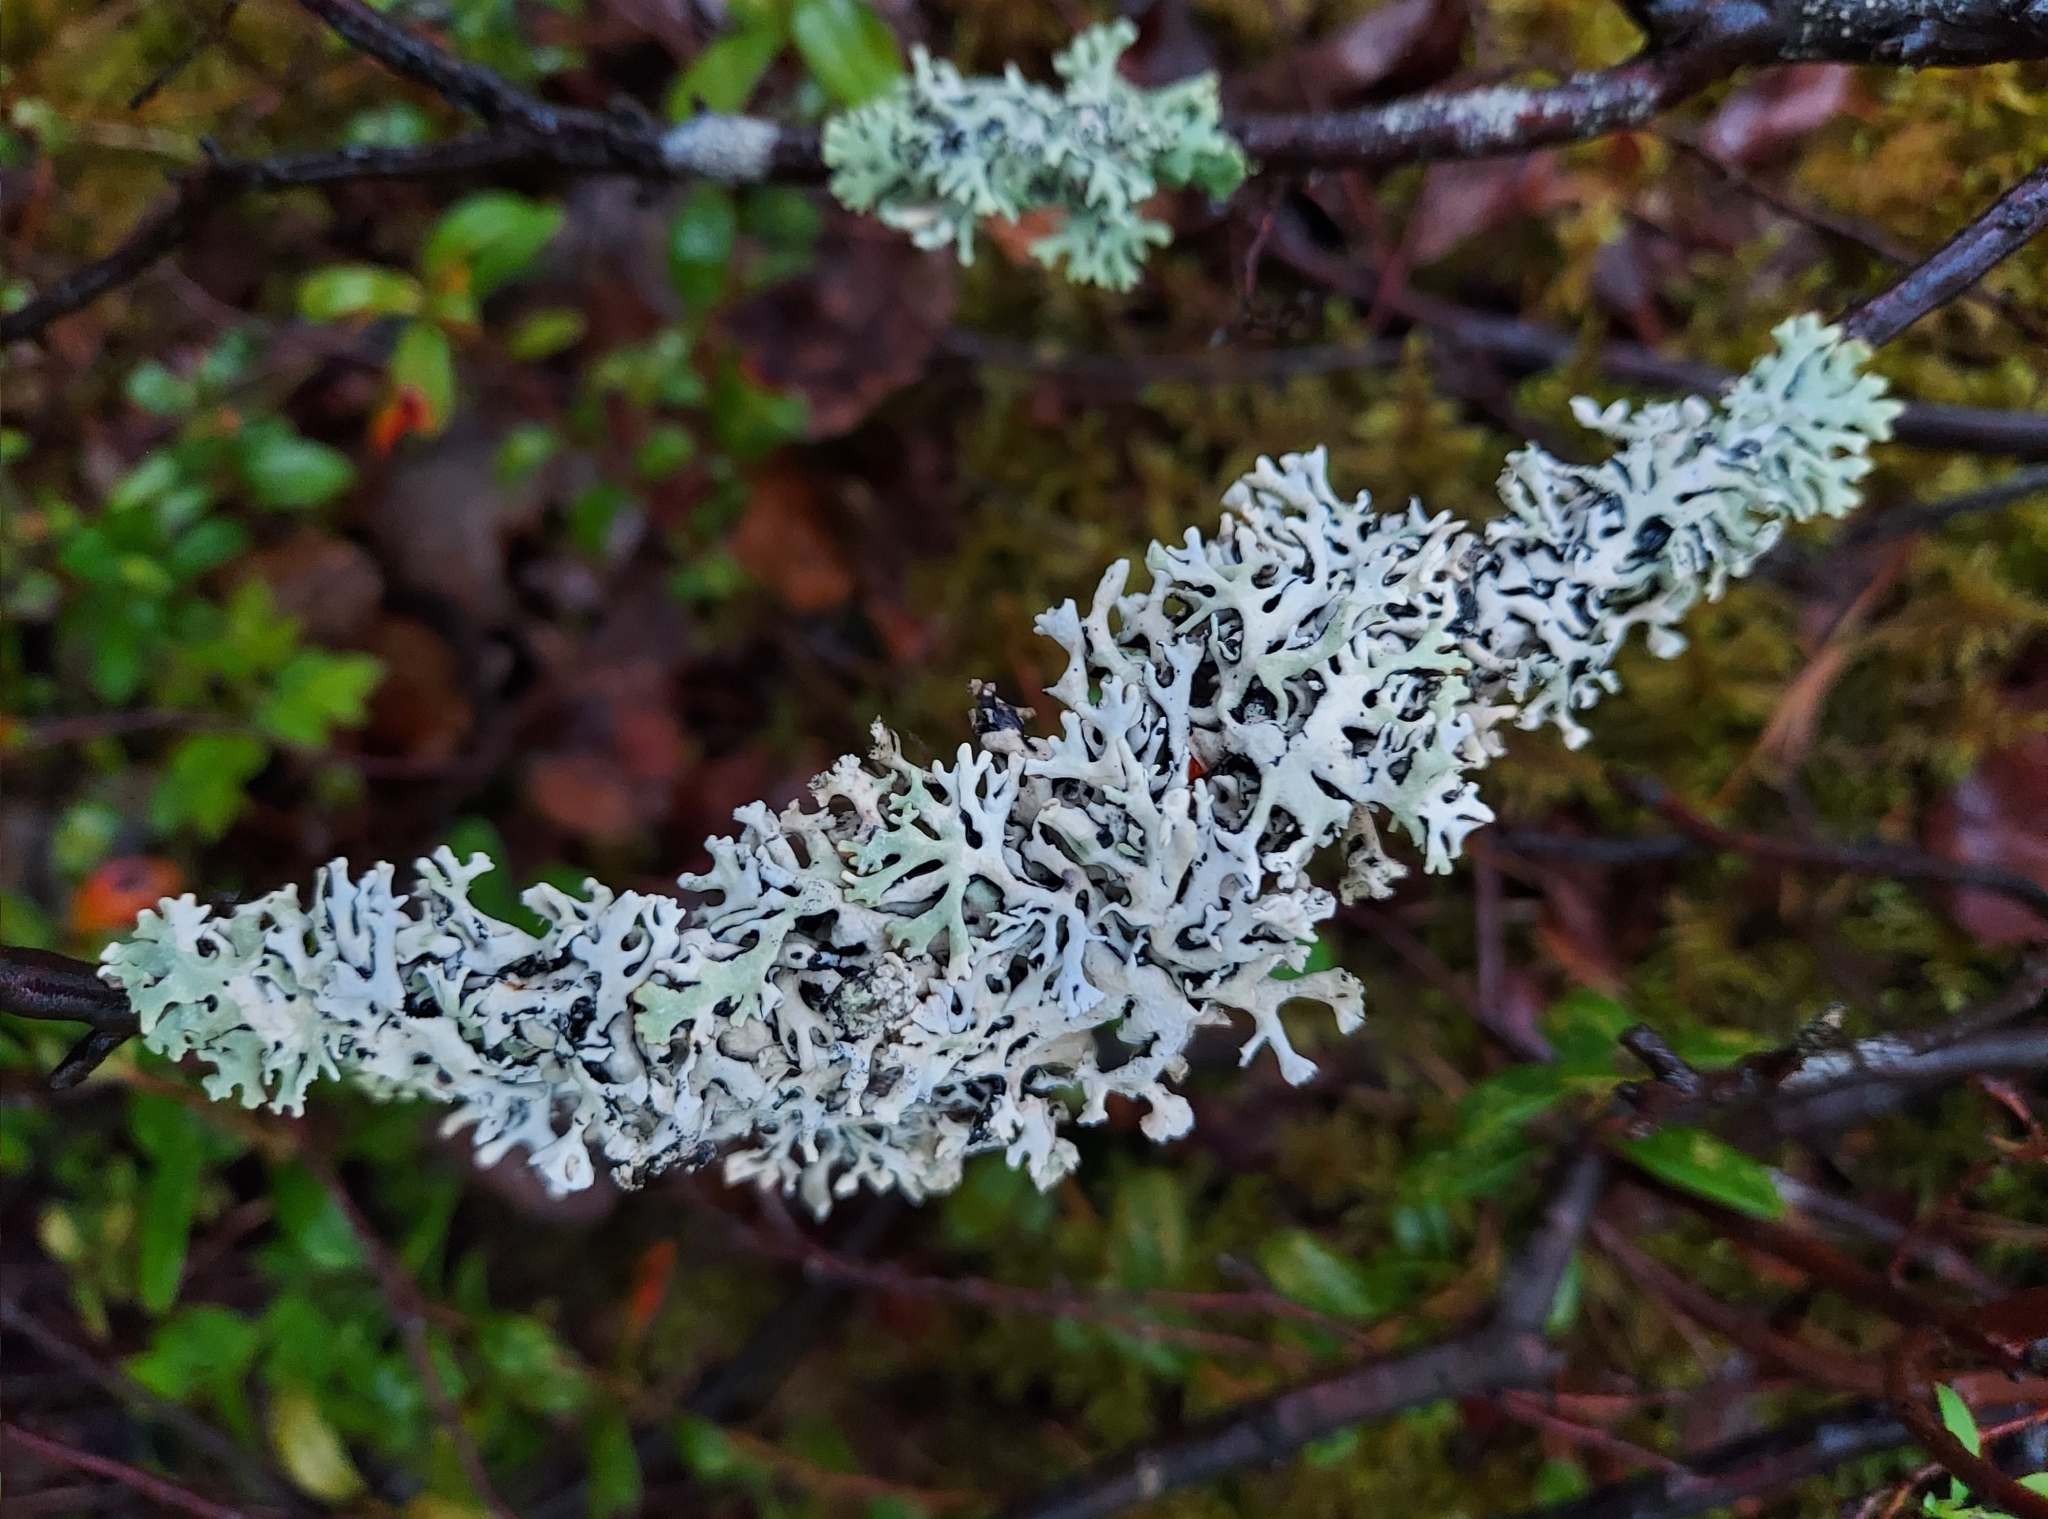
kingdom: Fungi
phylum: Ascomycota
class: Lecanoromycetes
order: Lecanorales
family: Parmeliaceae
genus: Hypogymnia
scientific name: Hypogymnia physodes
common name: Dark crottle
